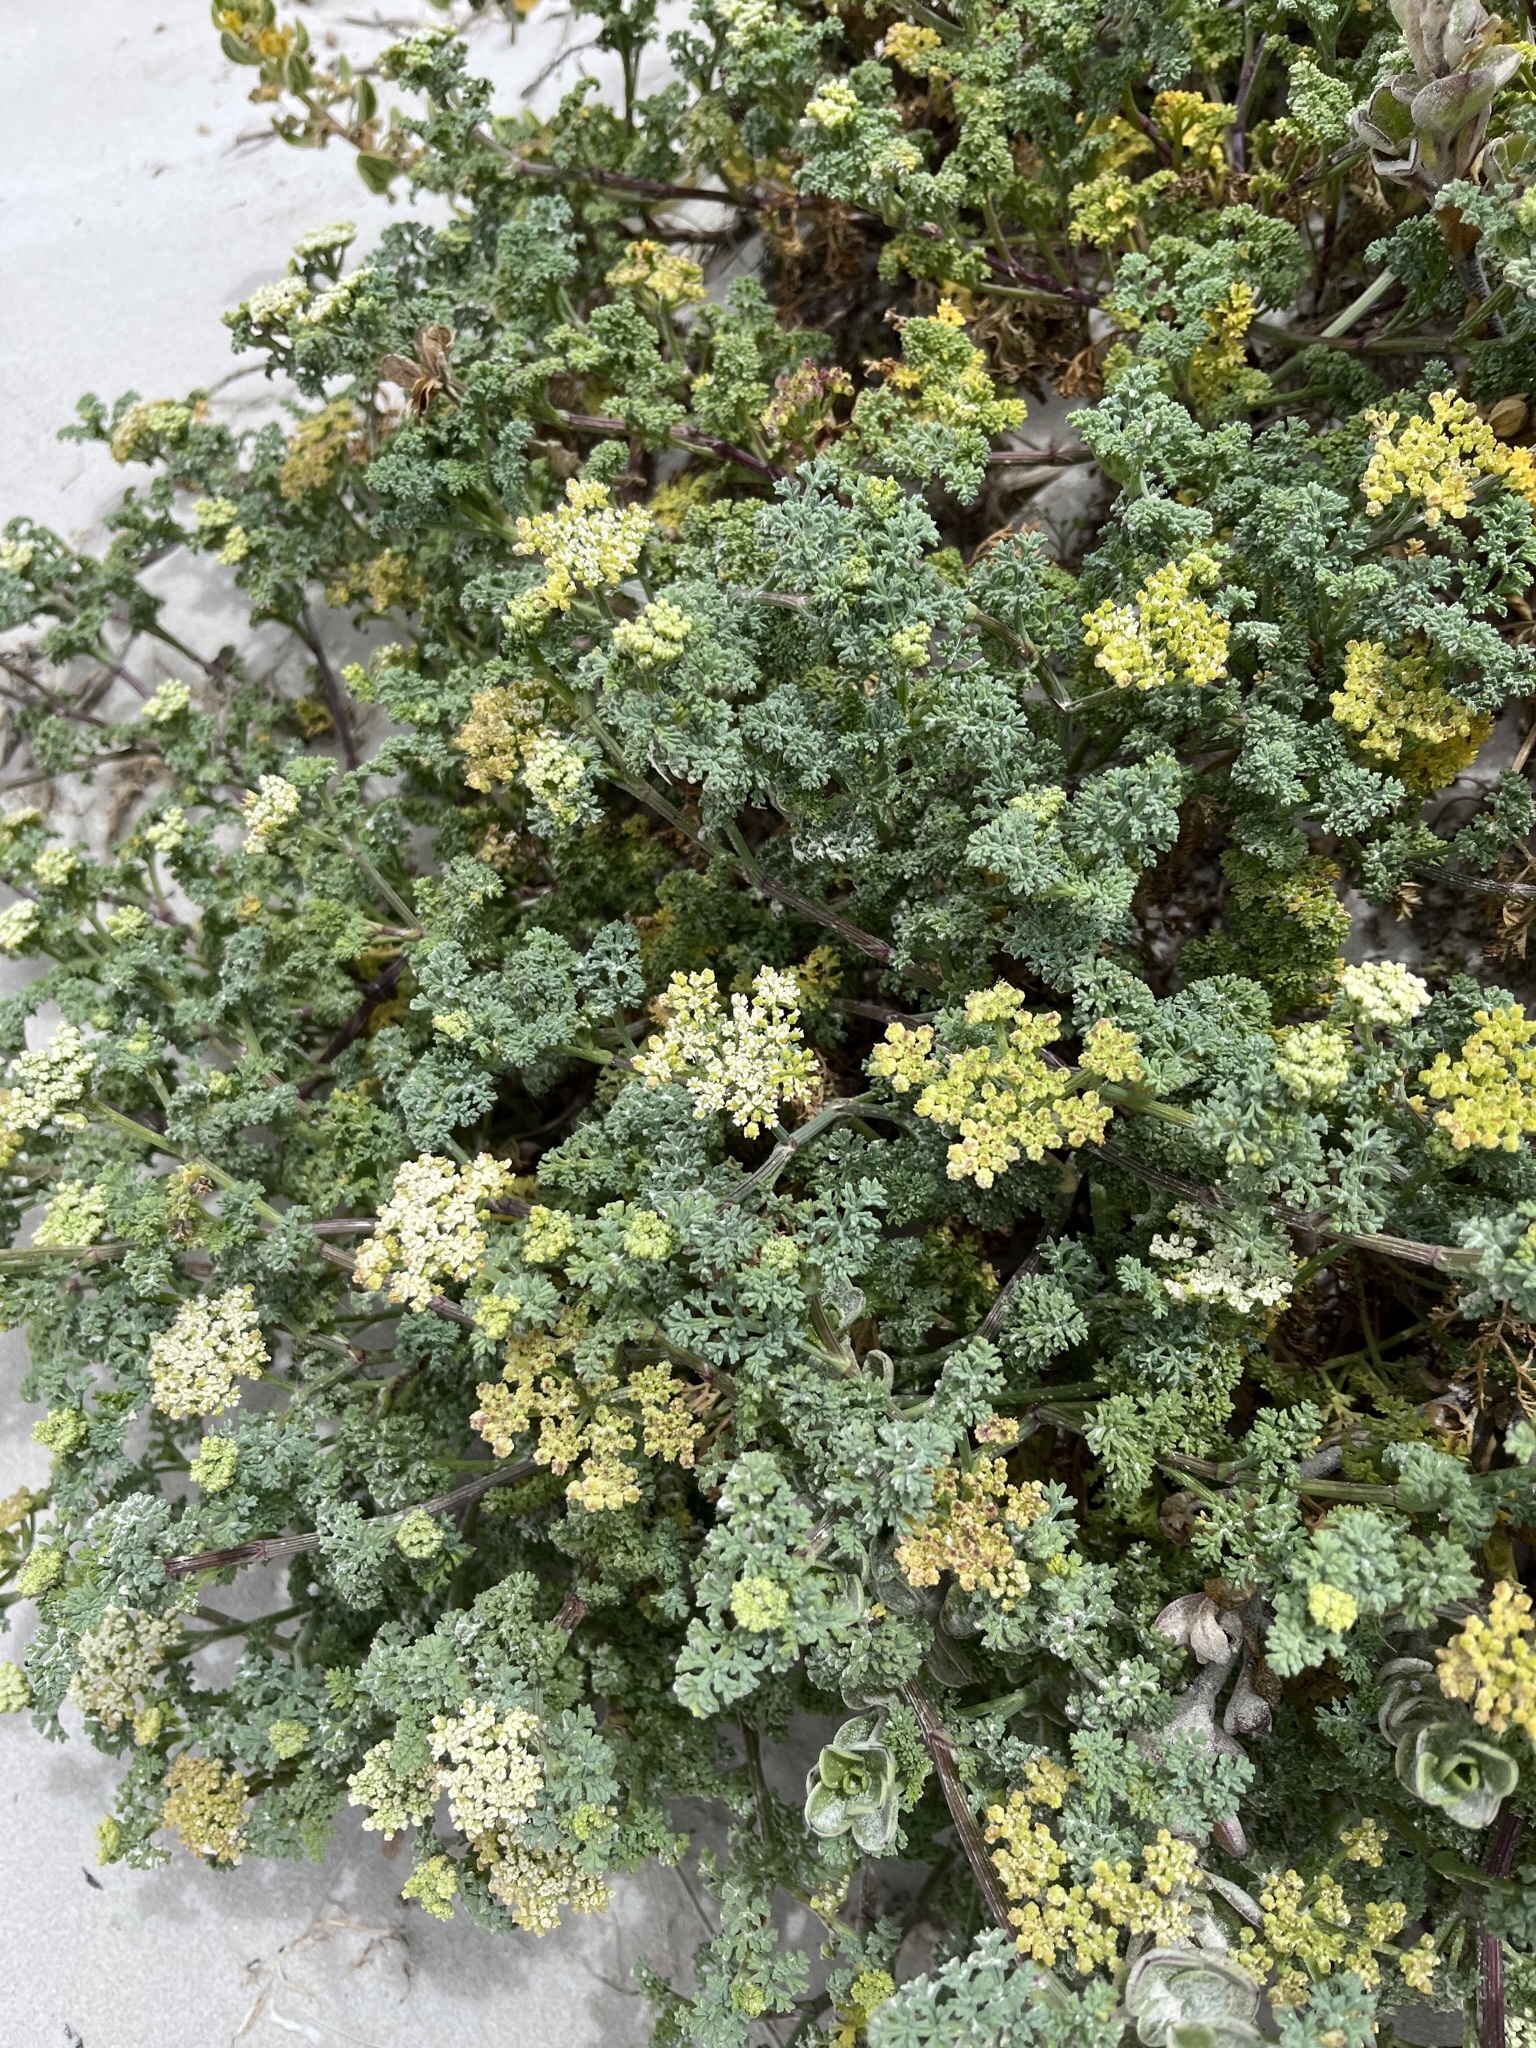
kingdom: Plantae
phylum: Tracheophyta
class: Magnoliopsida
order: Apiales
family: Apiaceae
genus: Dasispermum
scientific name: Dasispermum suffruticosum
